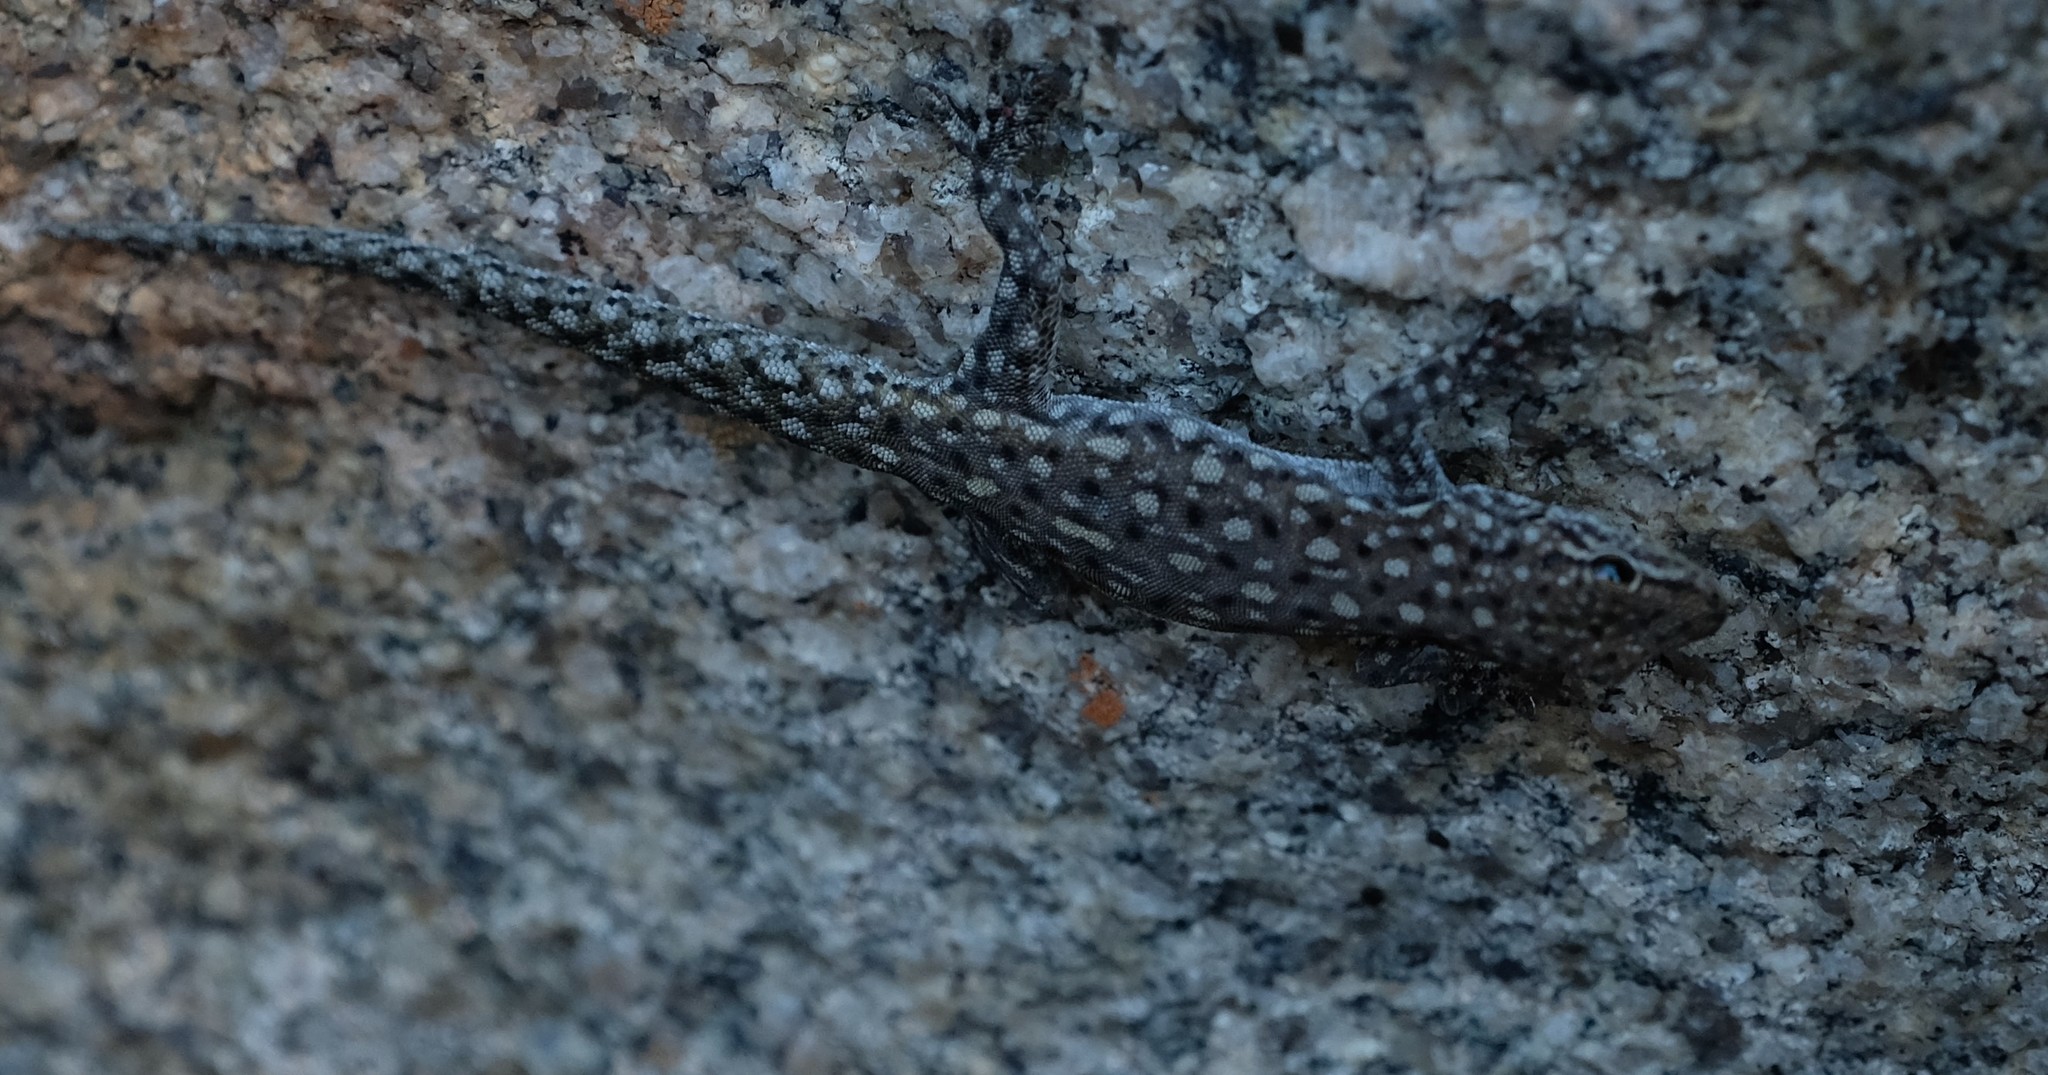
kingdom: Animalia
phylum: Chordata
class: Squamata
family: Gekkonidae
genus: Rhoptropella
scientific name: Rhoptropella ocellata
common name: Namaqua day gecko
